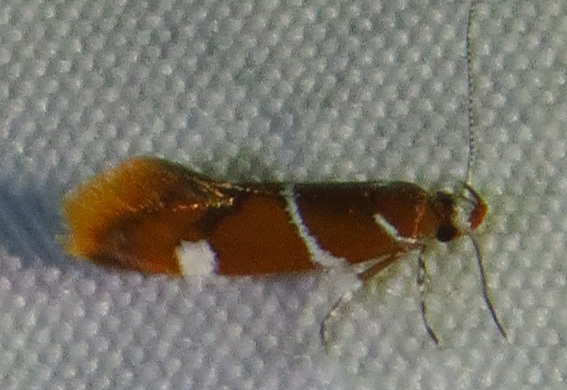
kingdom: Animalia
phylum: Arthropoda
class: Insecta
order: Lepidoptera
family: Oecophoridae
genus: Promalactis
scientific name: Promalactis suzukiella
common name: Moth
